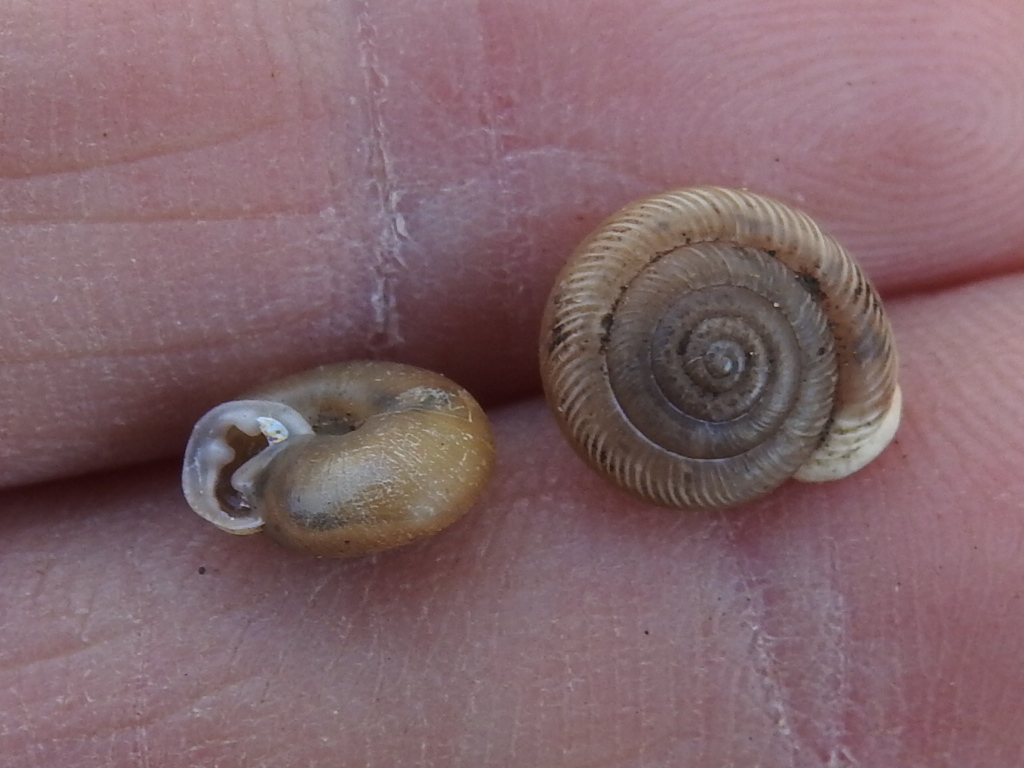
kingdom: Animalia
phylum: Mollusca
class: Gastropoda
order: Stylommatophora
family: Polygyridae
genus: Linisa
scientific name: Linisa texasiana
